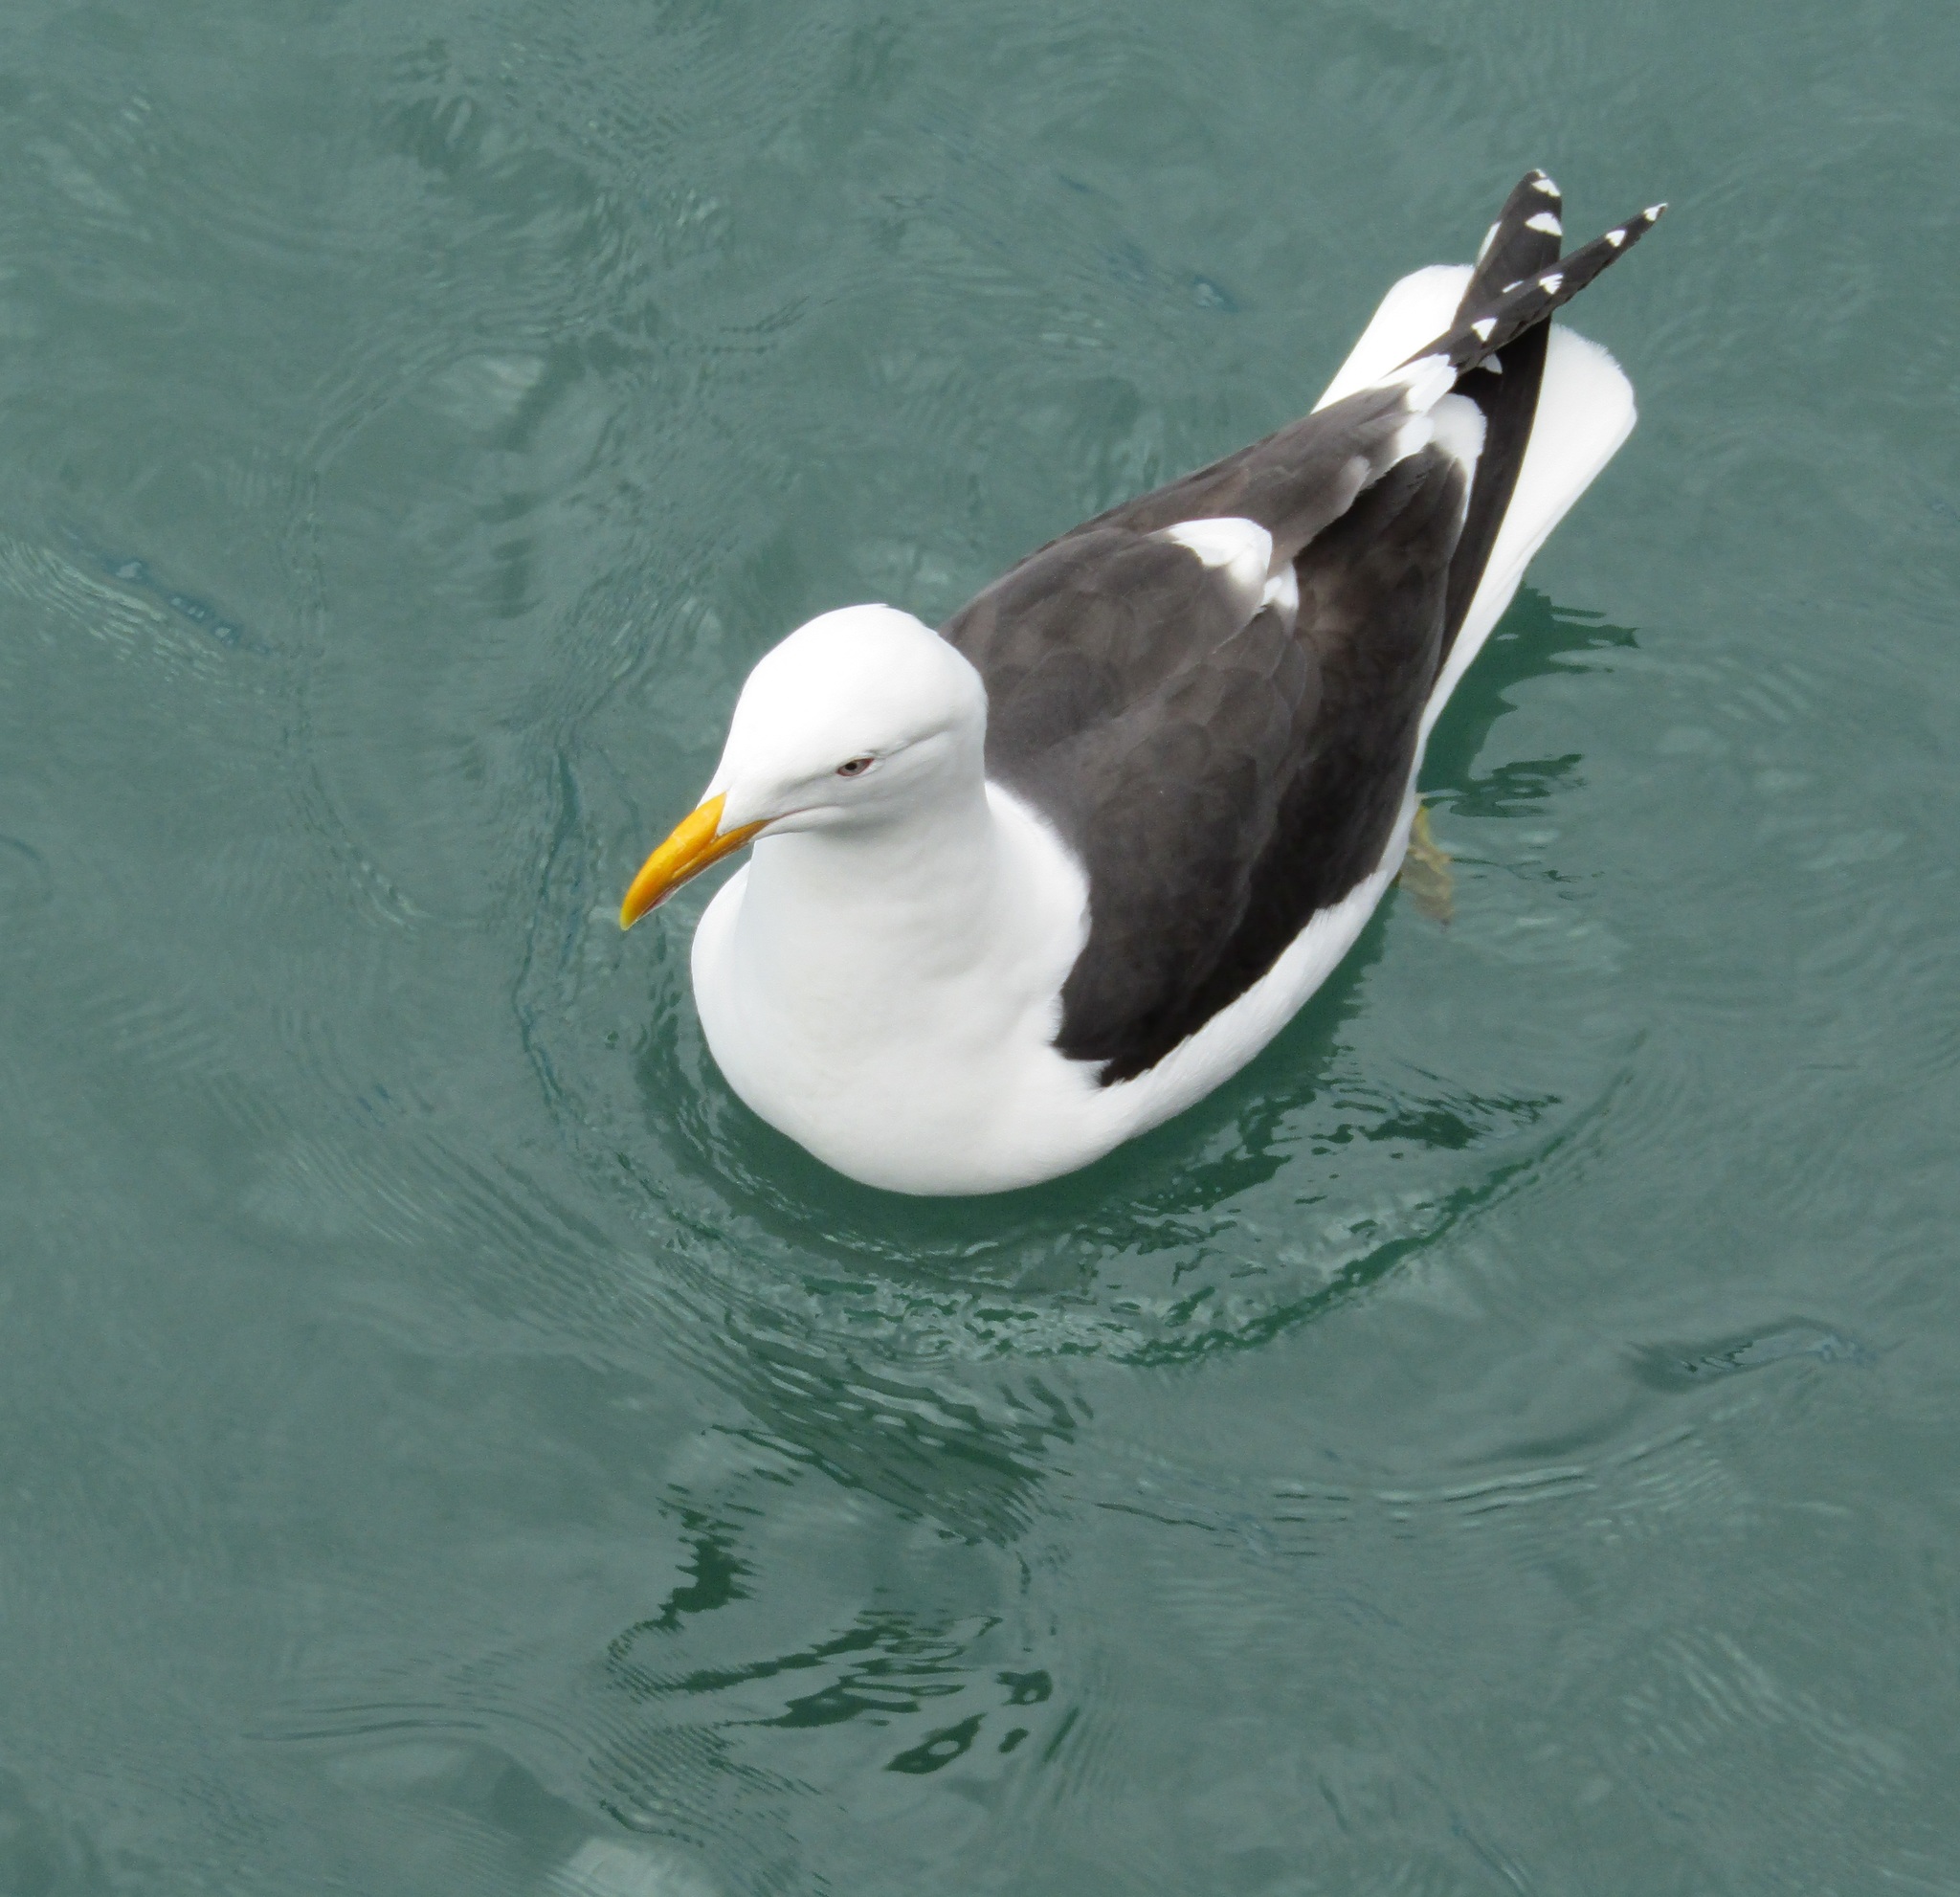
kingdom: Animalia
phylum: Chordata
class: Aves
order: Charadriiformes
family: Laridae
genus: Larus
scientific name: Larus dominicanus
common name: Kelp gull
